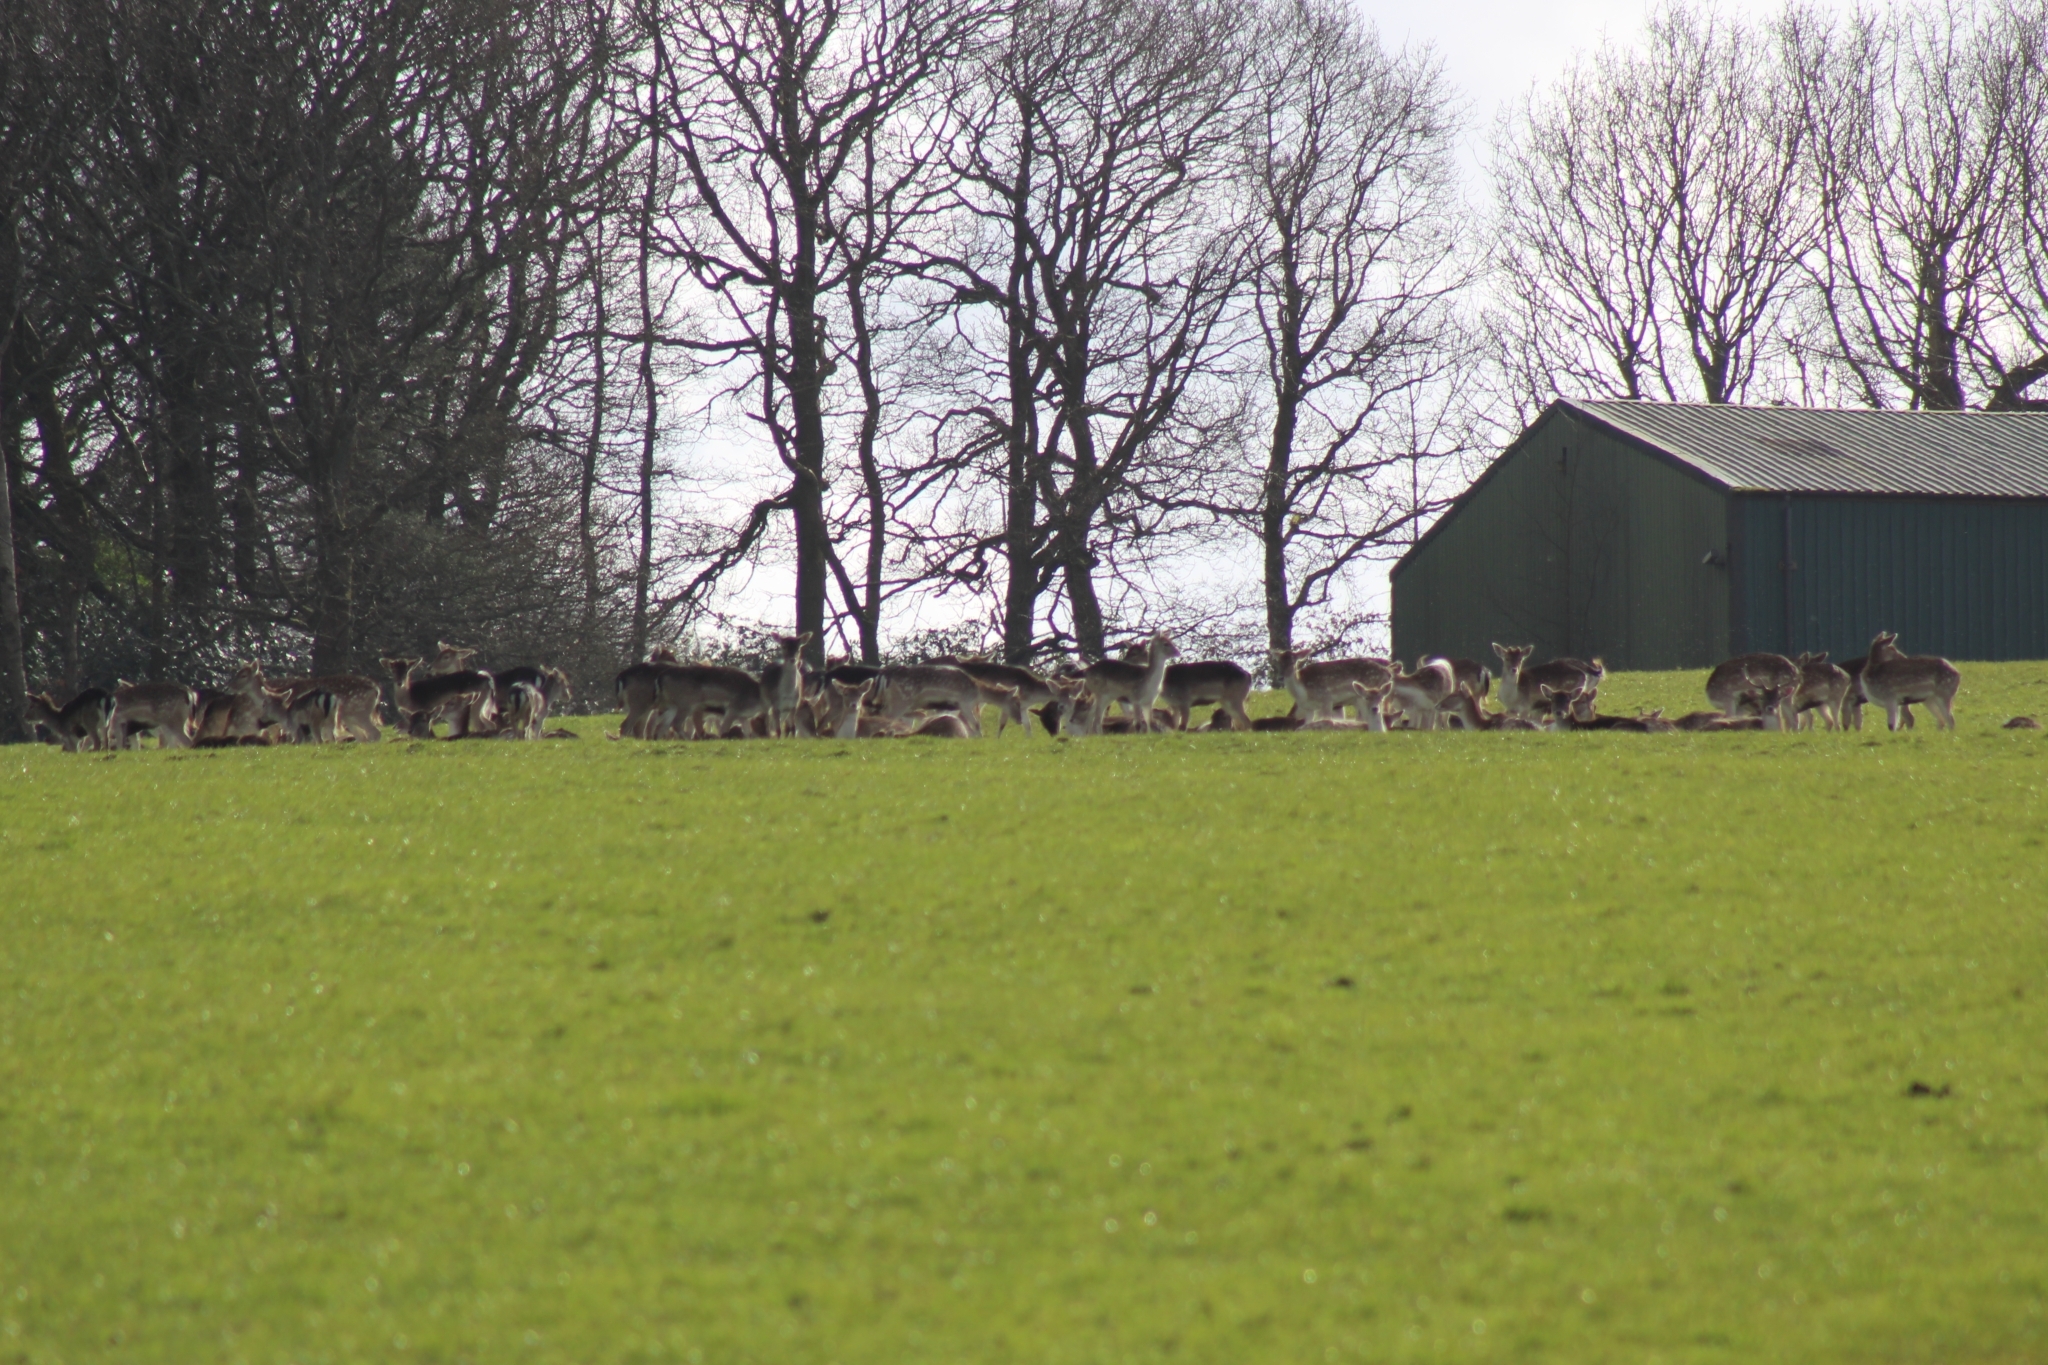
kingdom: Animalia
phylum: Chordata
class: Mammalia
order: Artiodactyla
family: Cervidae
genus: Dama
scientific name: Dama dama
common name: Fallow deer
